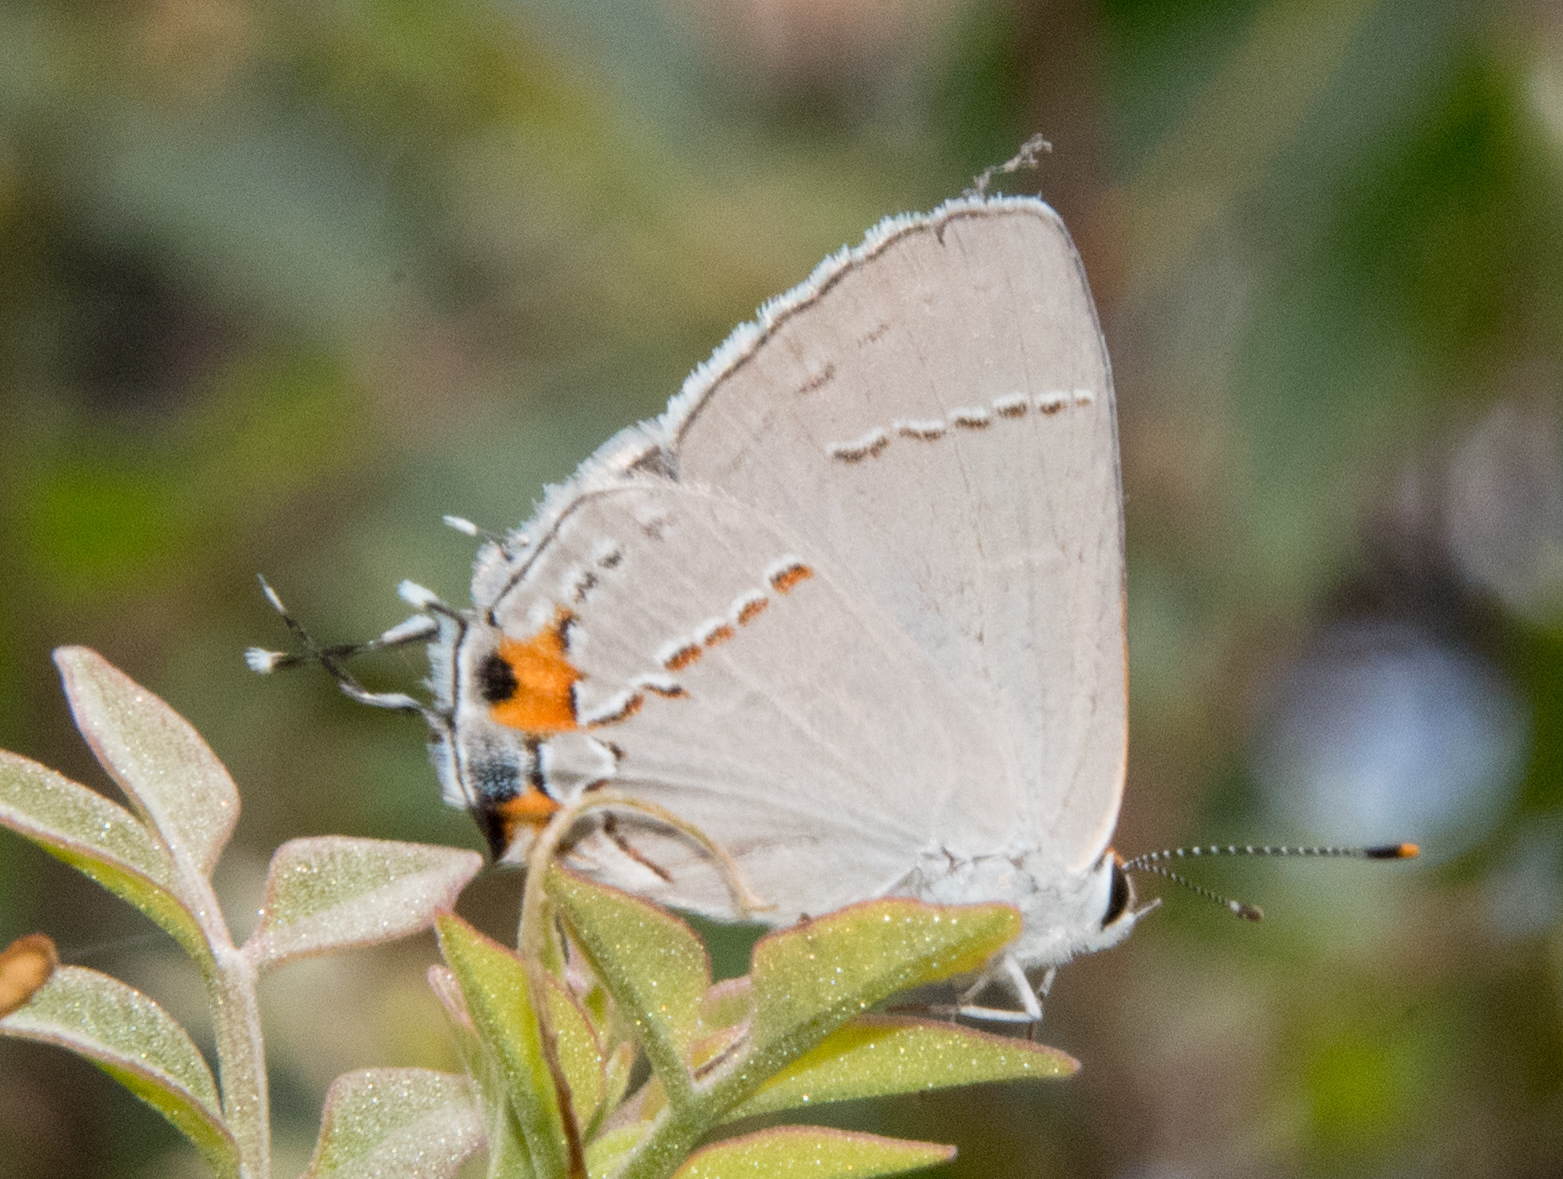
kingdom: Animalia
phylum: Arthropoda
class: Insecta
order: Lepidoptera
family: Lycaenidae
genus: Strymon
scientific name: Strymon melinus
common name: Gray hairstreak
